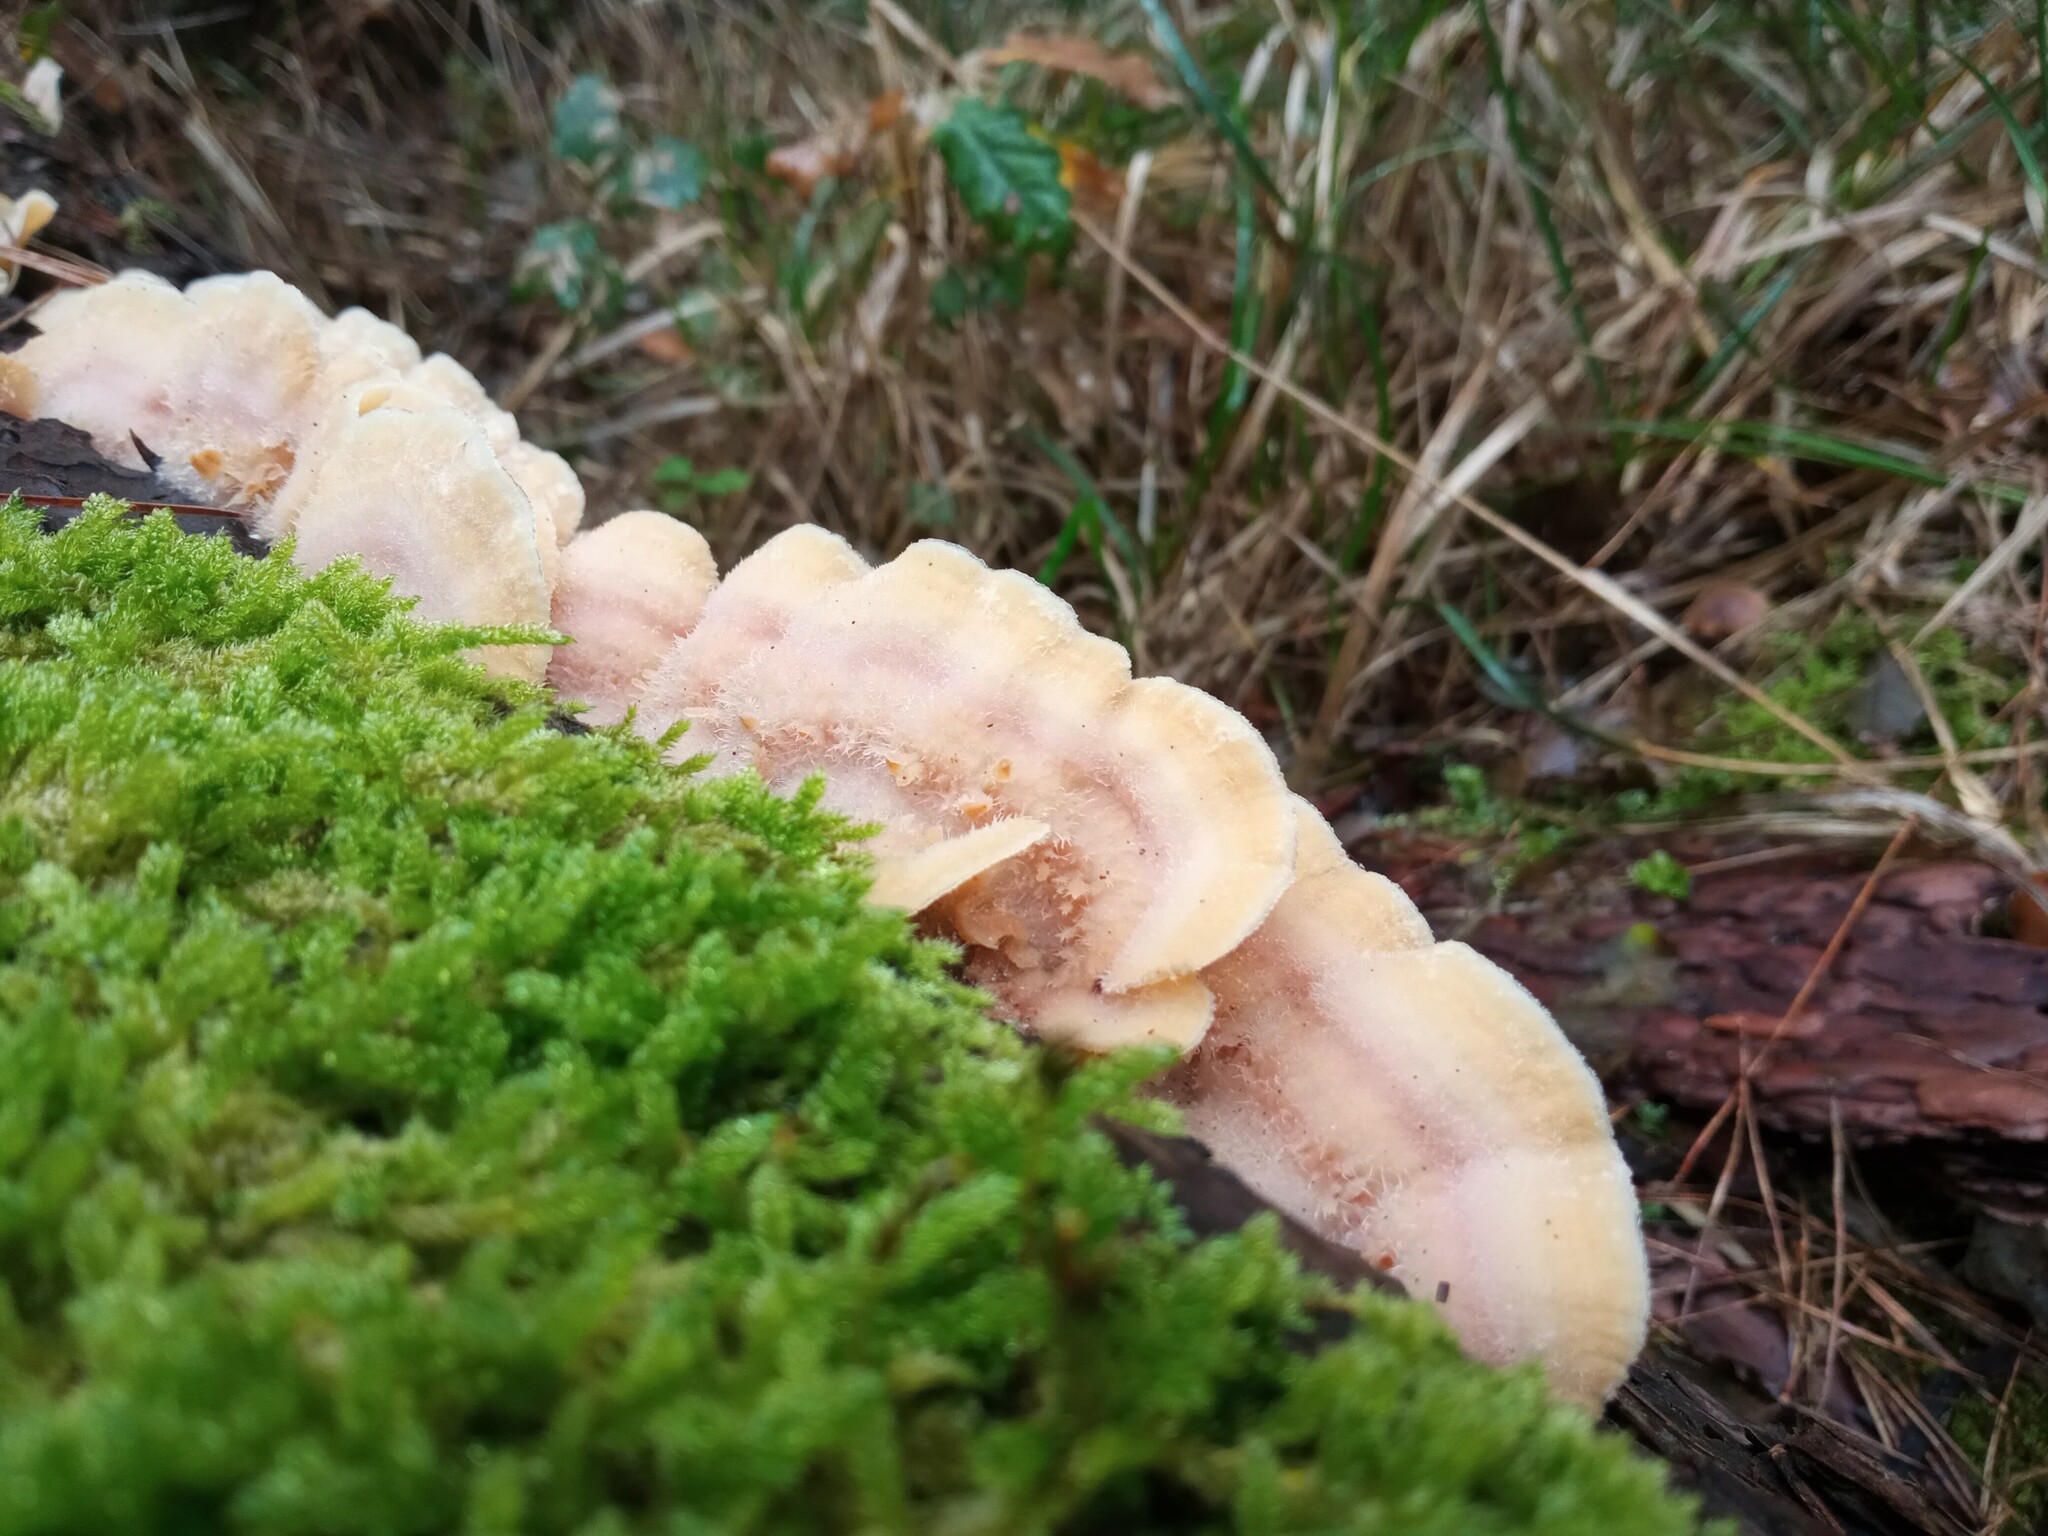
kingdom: Fungi
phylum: Basidiomycota
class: Agaricomycetes
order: Polyporales
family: Meruliaceae
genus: Phlebia
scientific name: Phlebia tremellosa
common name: Jelly rot
